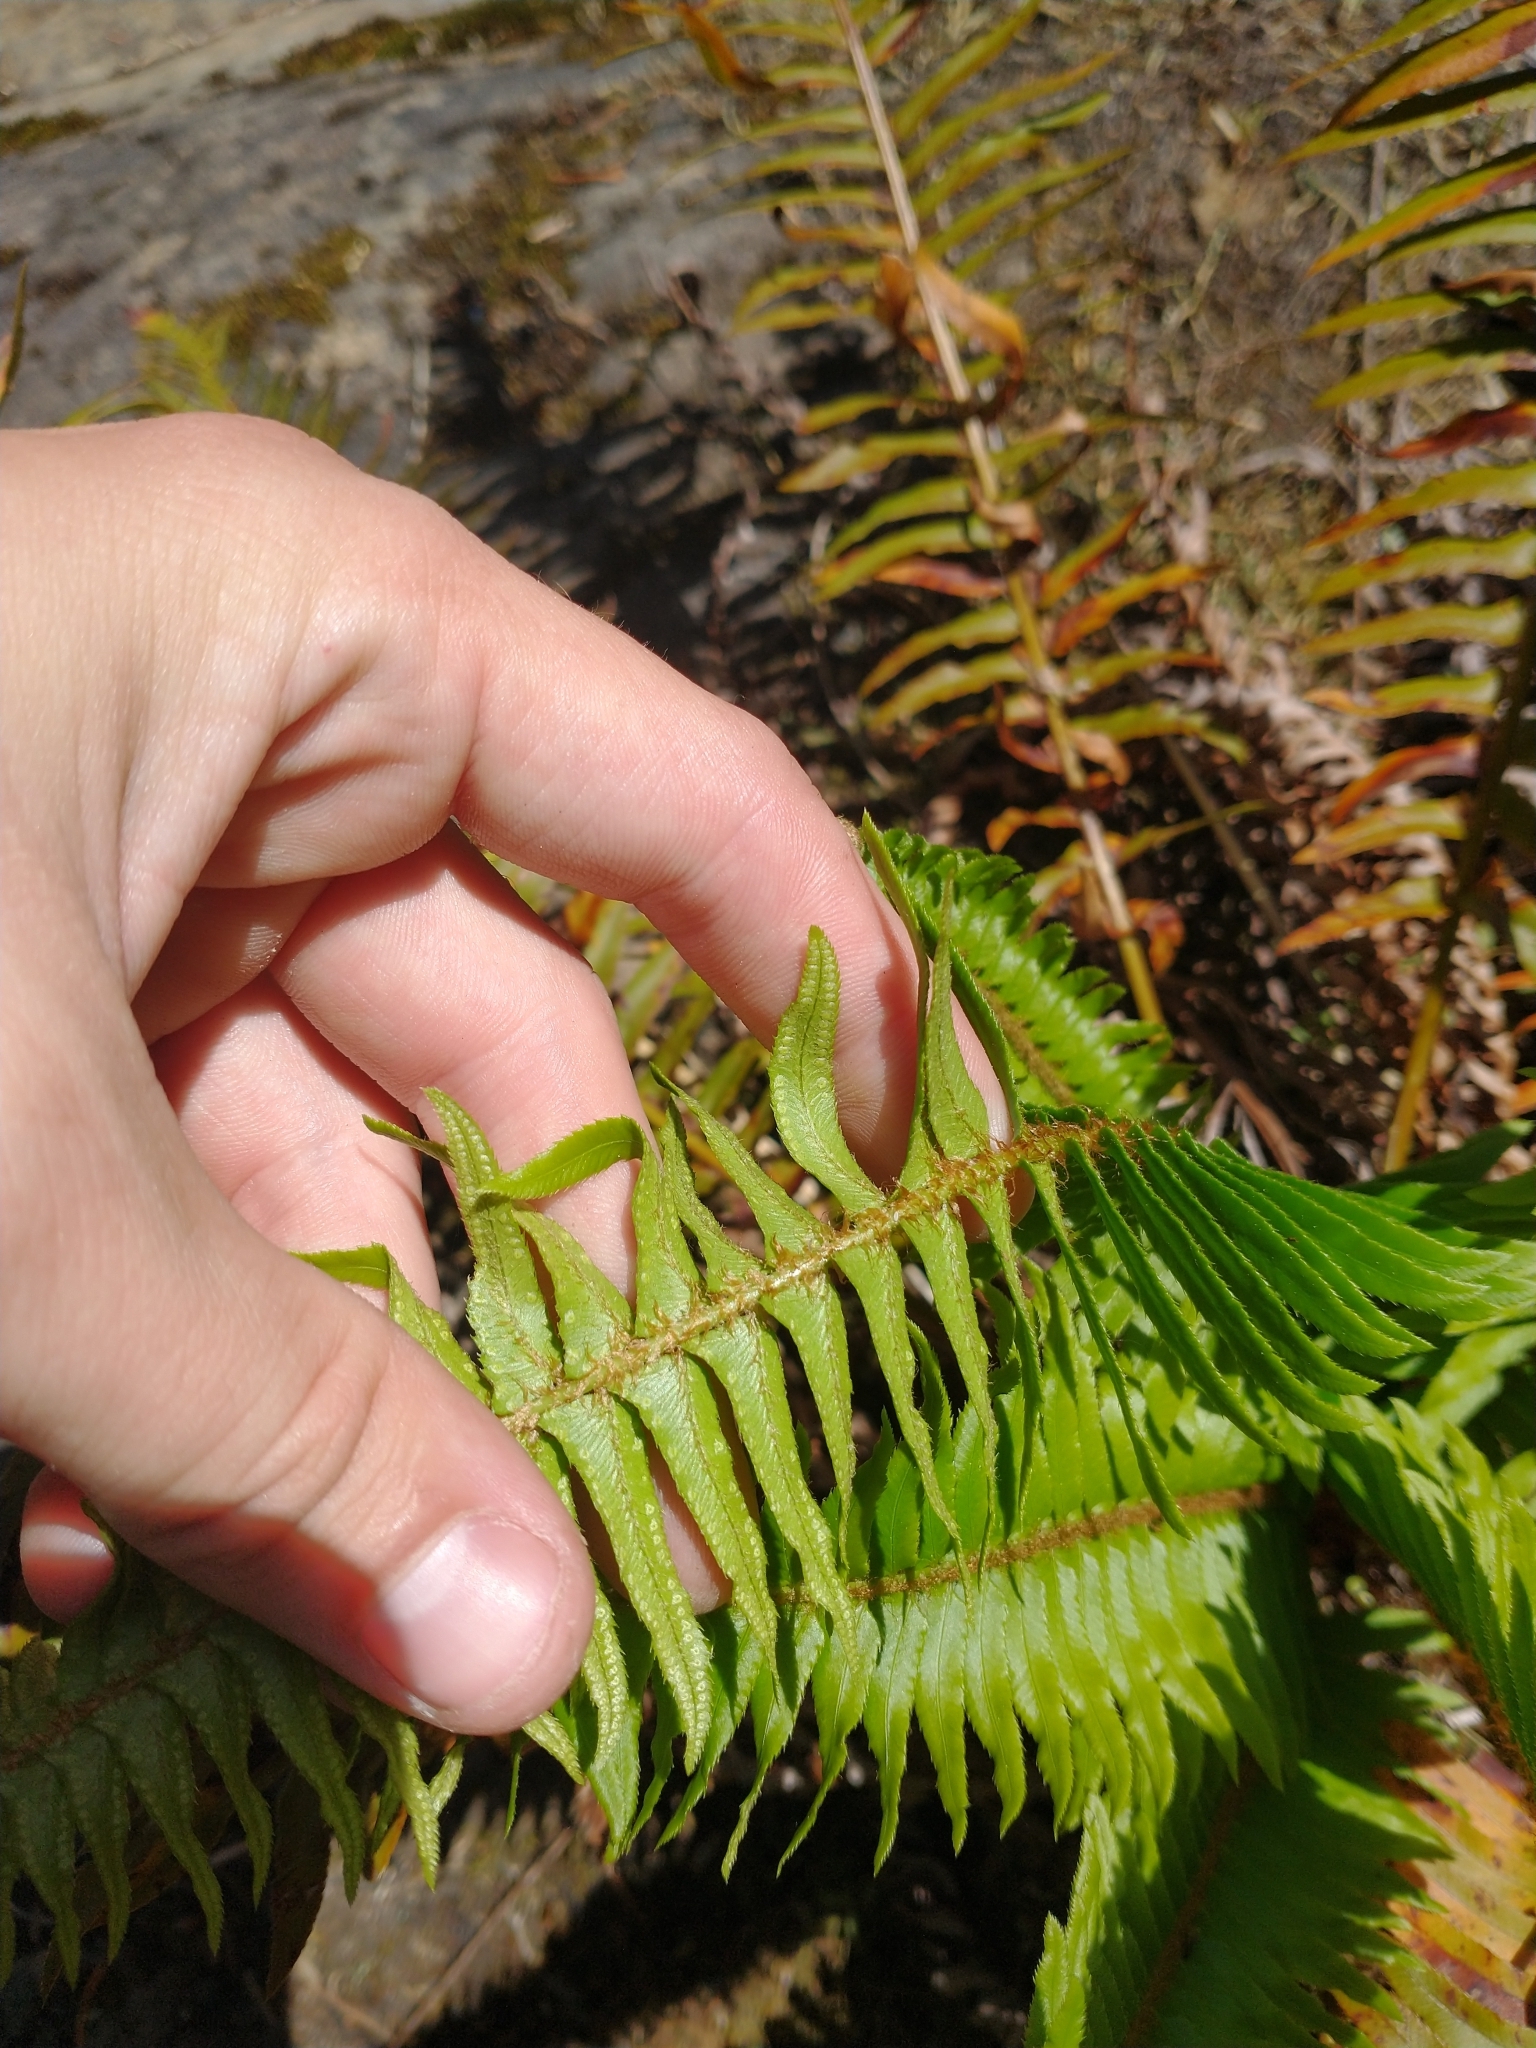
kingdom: Plantae
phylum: Tracheophyta
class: Polypodiopsida
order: Polypodiales
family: Dryopteridaceae
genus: Polystichum
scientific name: Polystichum munitum
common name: Western sword-fern
